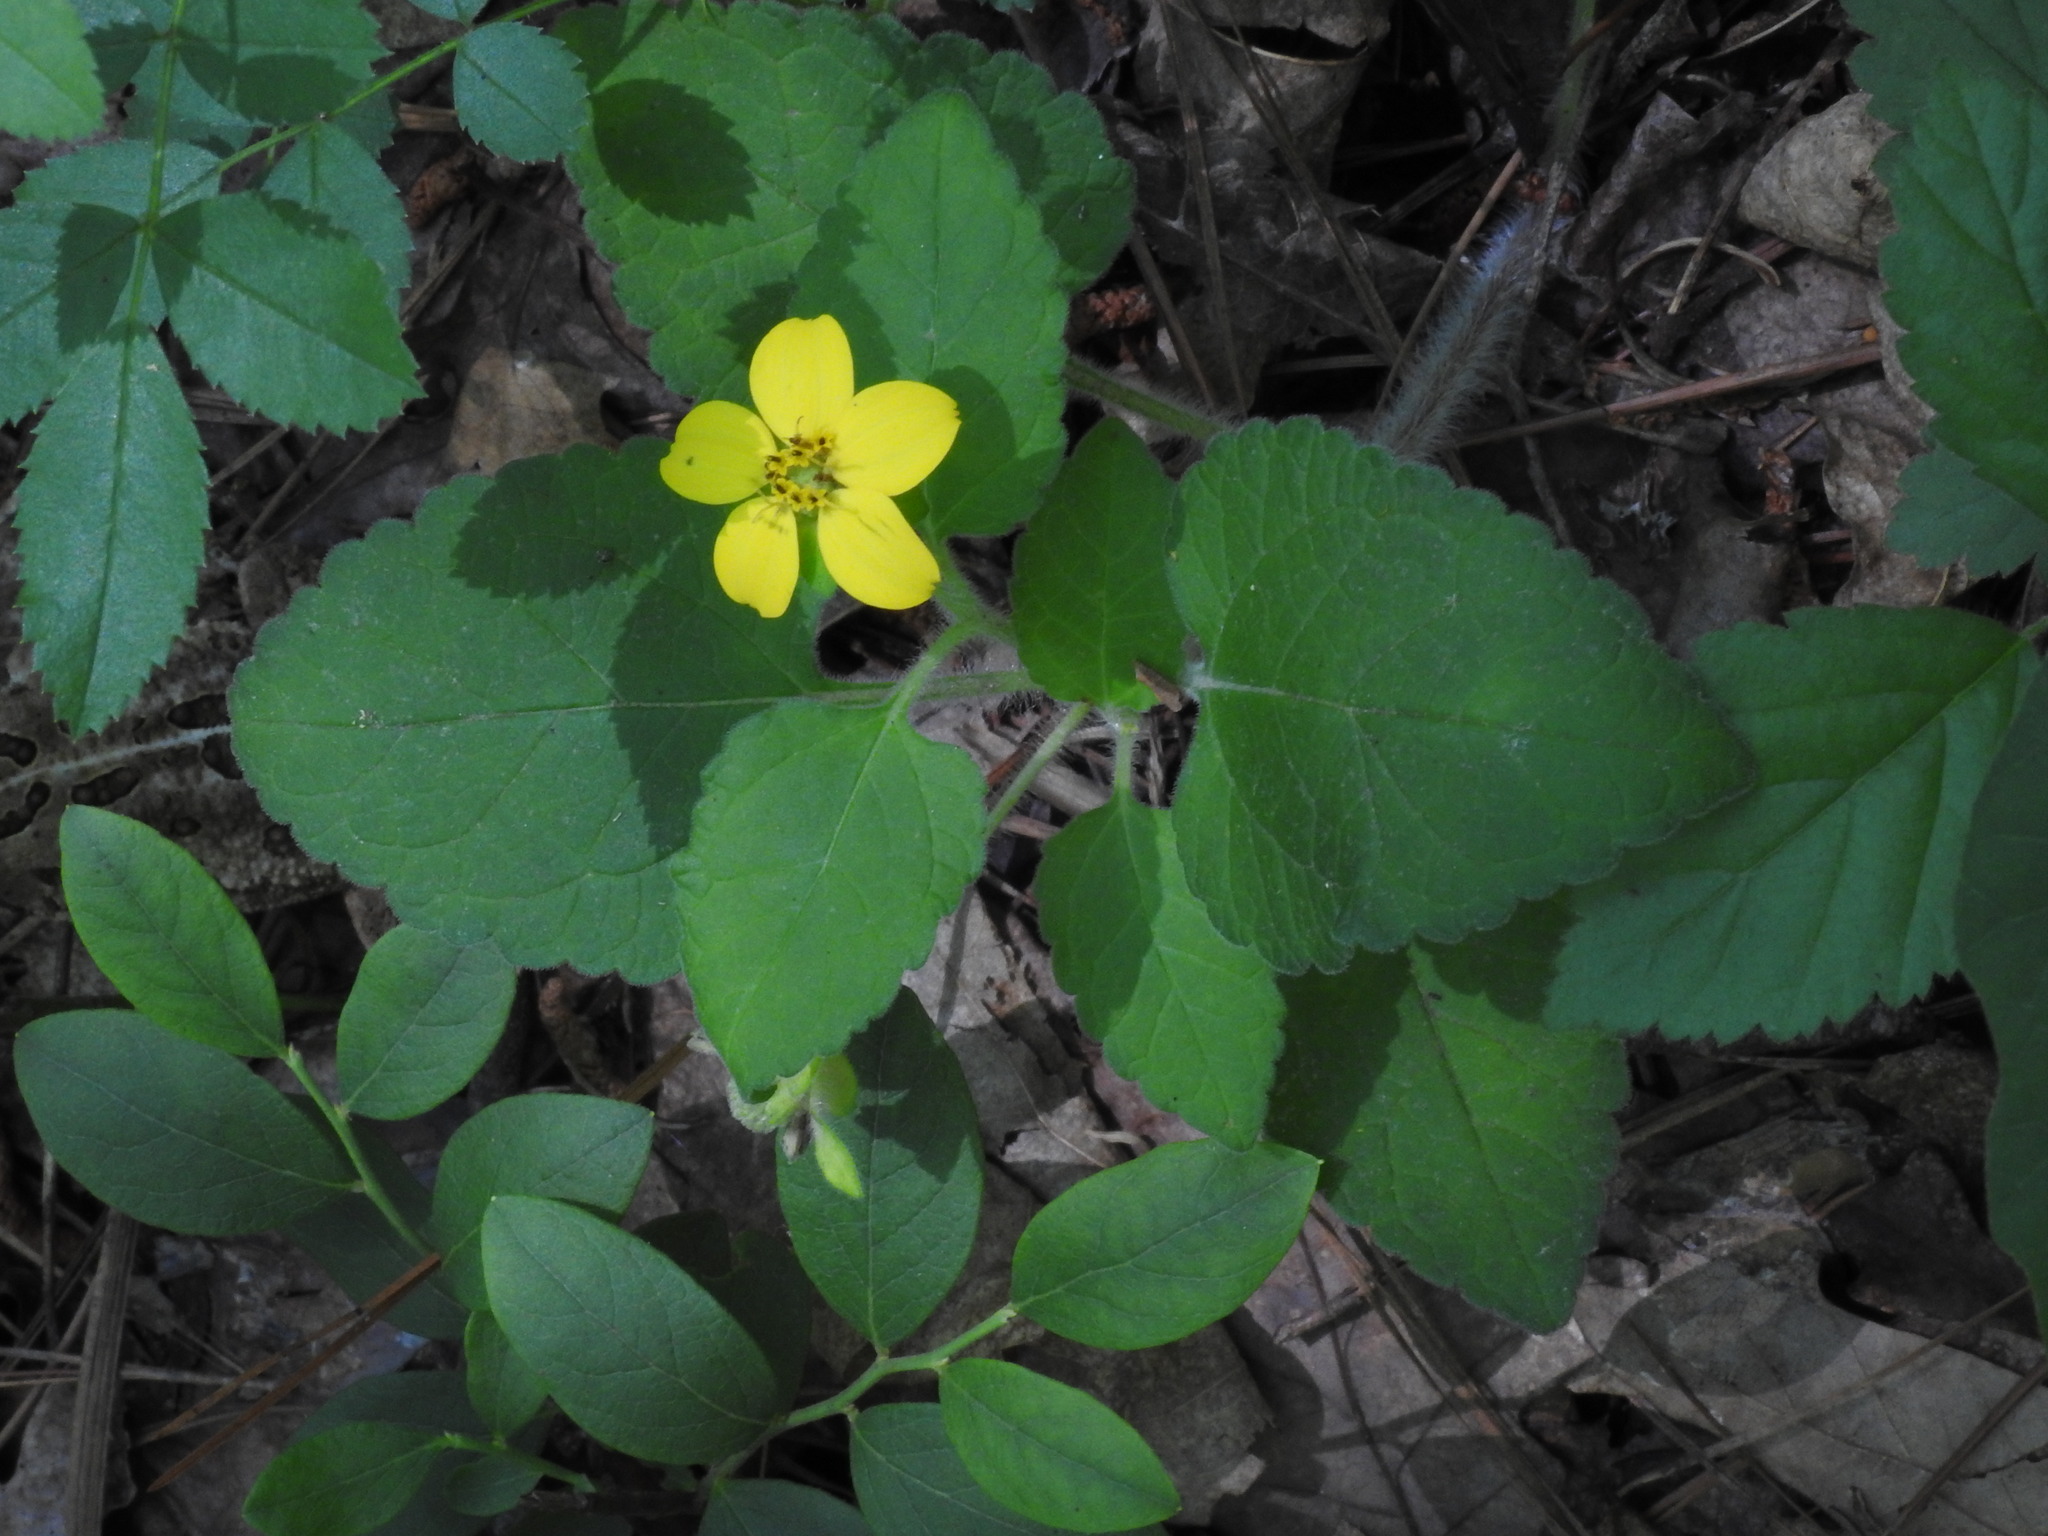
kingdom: Plantae
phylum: Tracheophyta
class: Magnoliopsida
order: Asterales
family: Asteraceae
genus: Chrysogonum
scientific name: Chrysogonum virginianum
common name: Golden-knee
